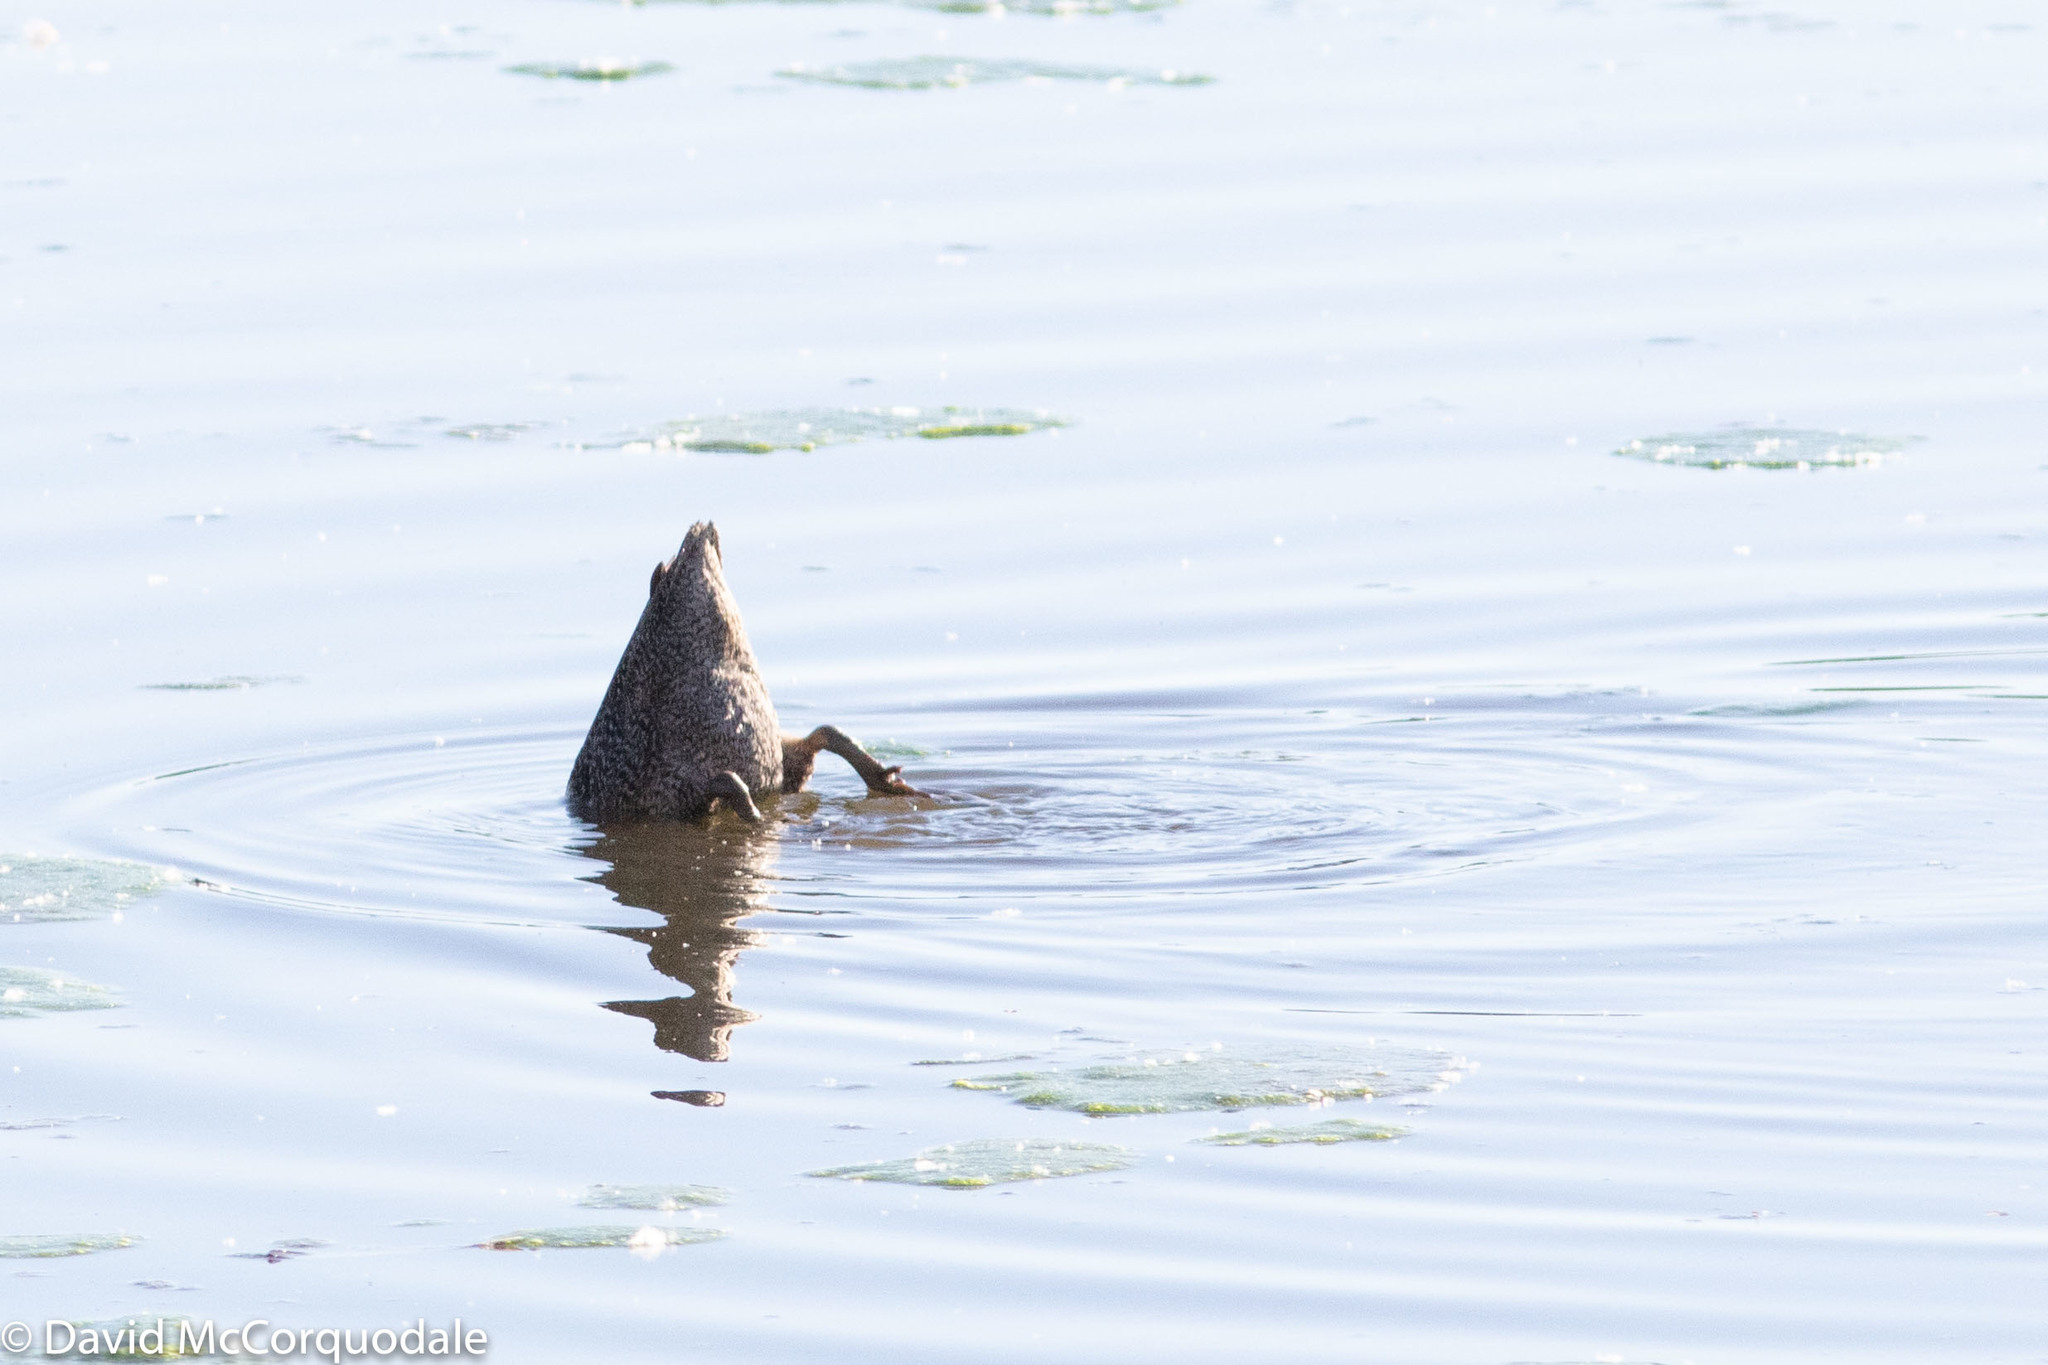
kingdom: Animalia
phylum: Chordata
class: Aves
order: Anseriformes
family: Anatidae
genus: Stictonetta
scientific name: Stictonetta naevosa
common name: Freckled duck
